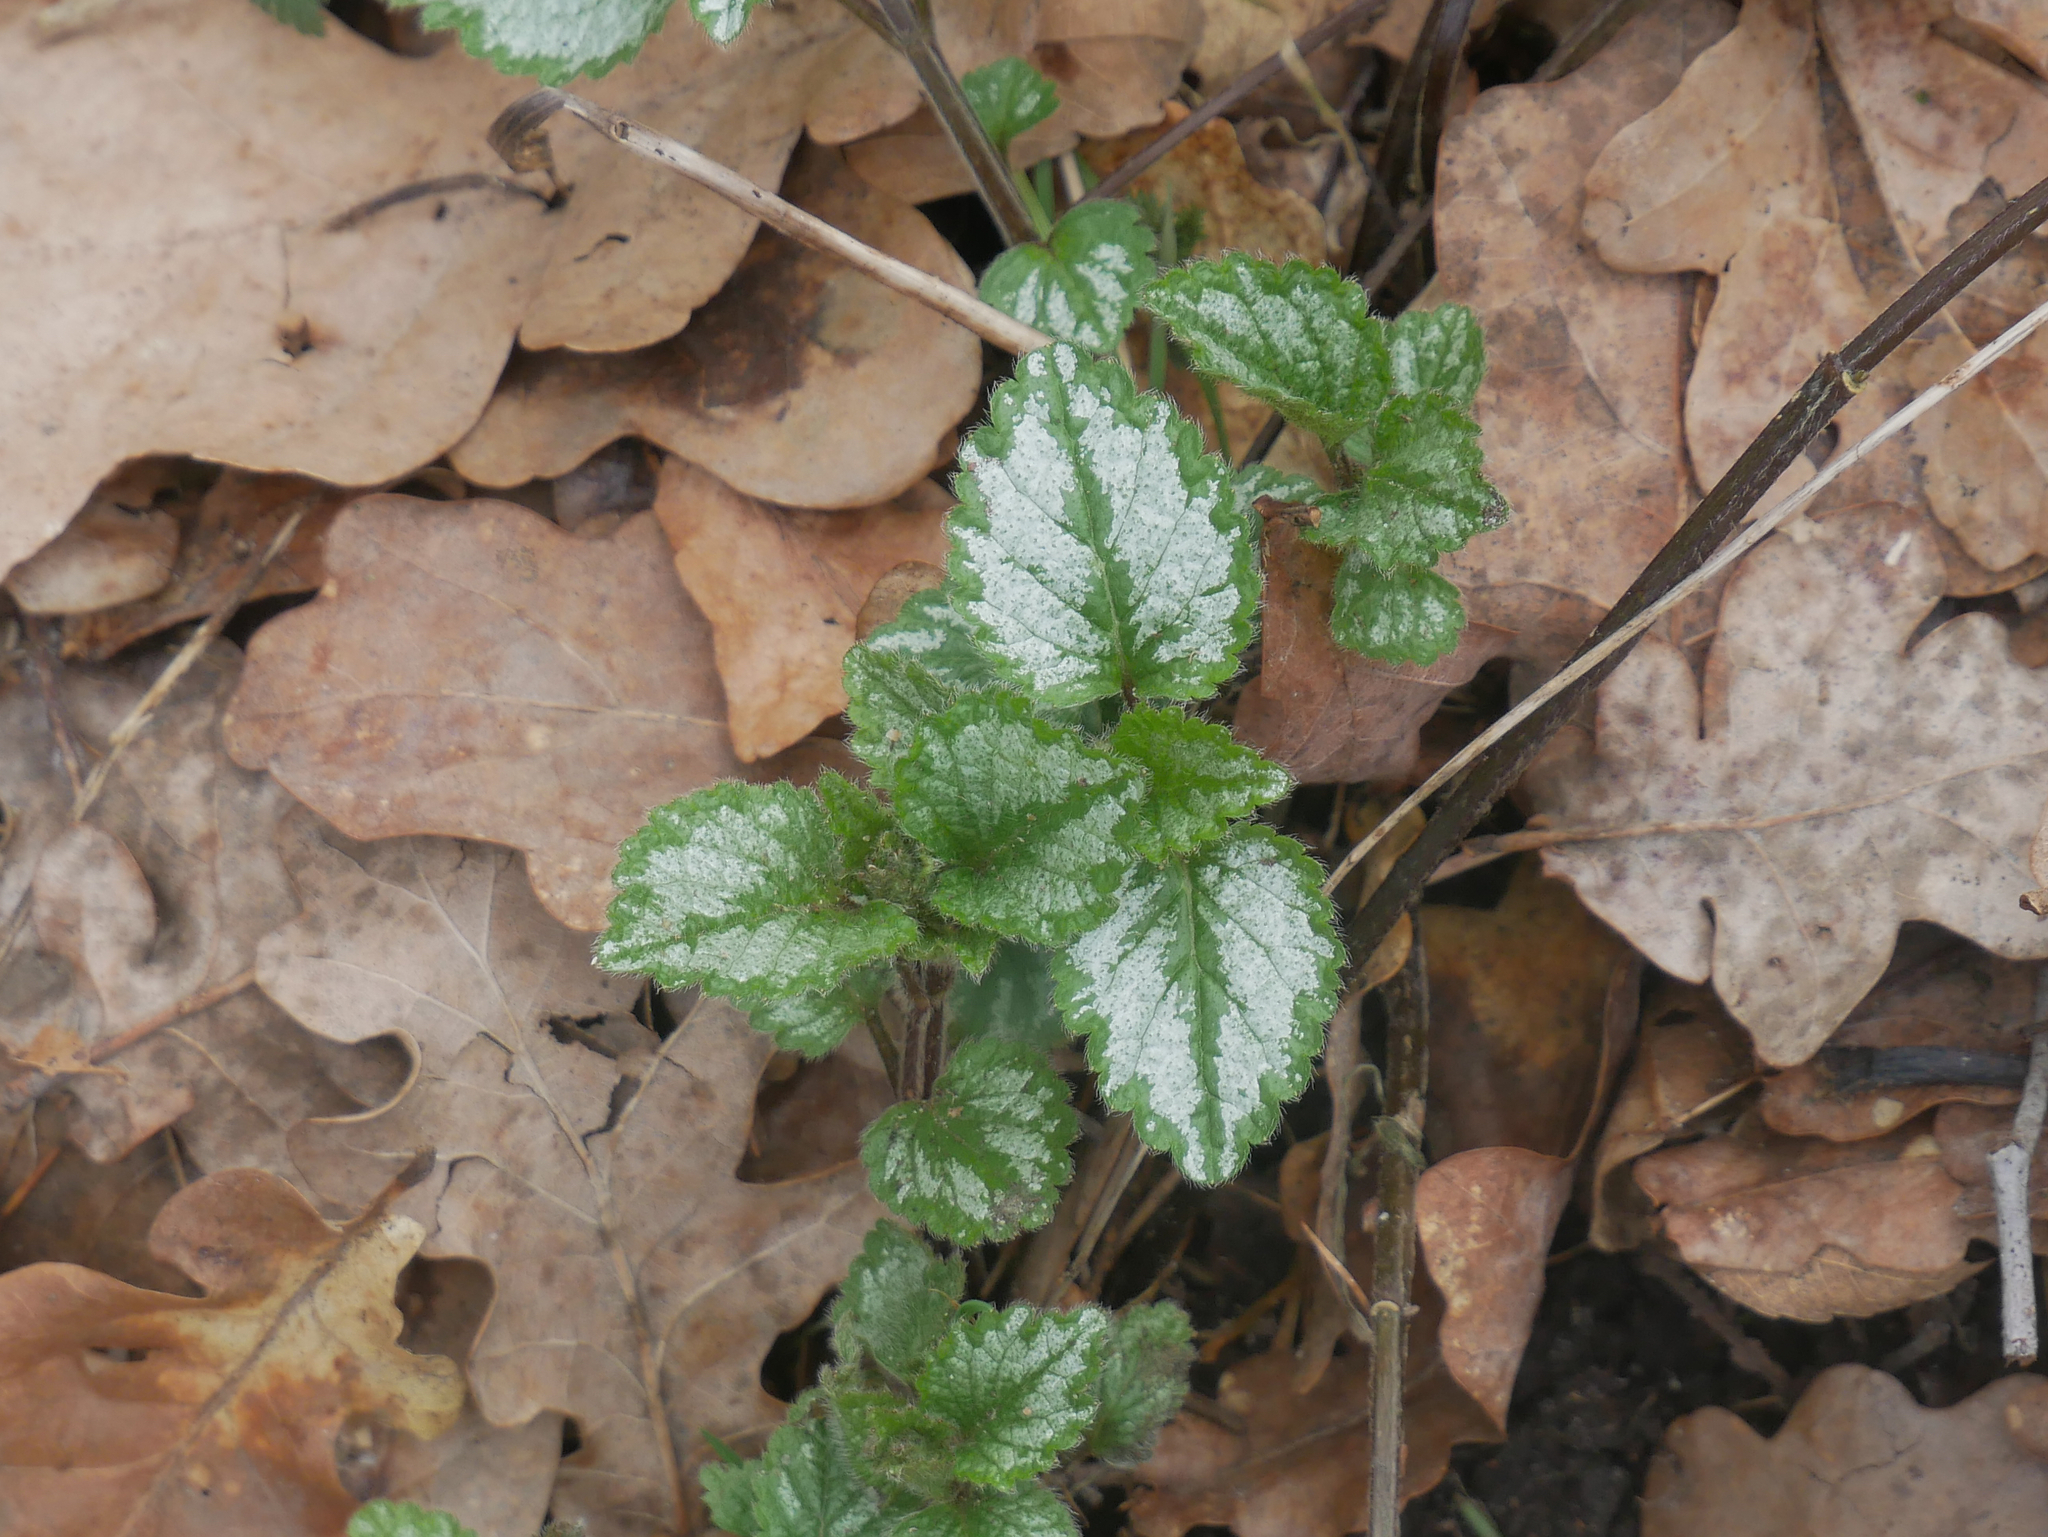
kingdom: Plantae
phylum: Tracheophyta
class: Magnoliopsida
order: Lamiales
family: Lamiaceae
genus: Lamium
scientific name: Lamium galeobdolon
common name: Yellow archangel
